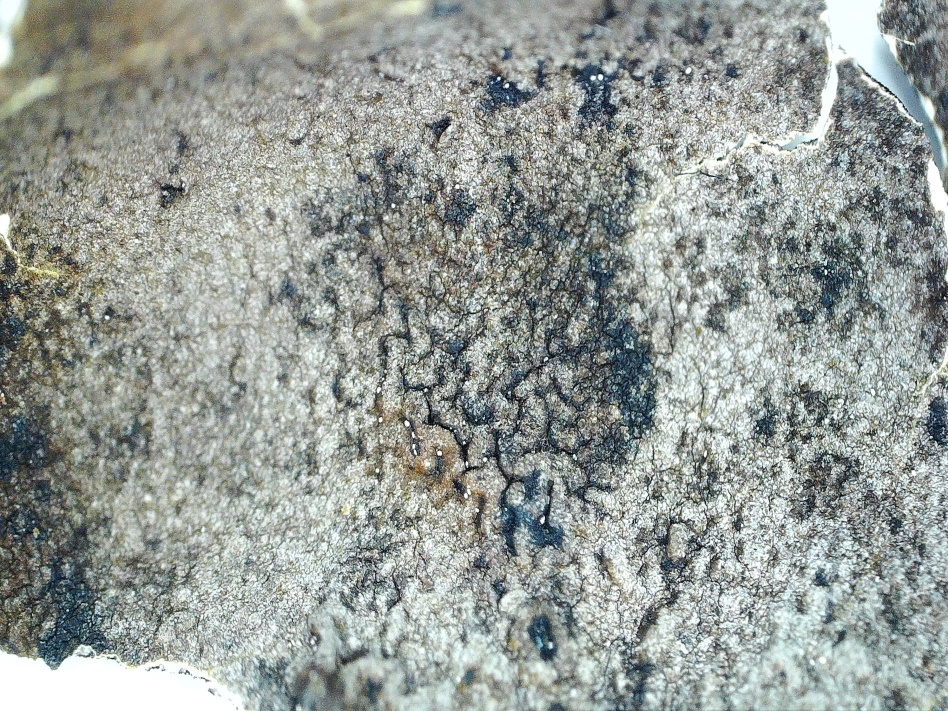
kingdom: Fungi
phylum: Ascomycota
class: Lecanoromycetes
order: Umbilicariales
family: Umbilicariaceae
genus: Umbilicaria
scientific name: Umbilicaria nylanderiana
